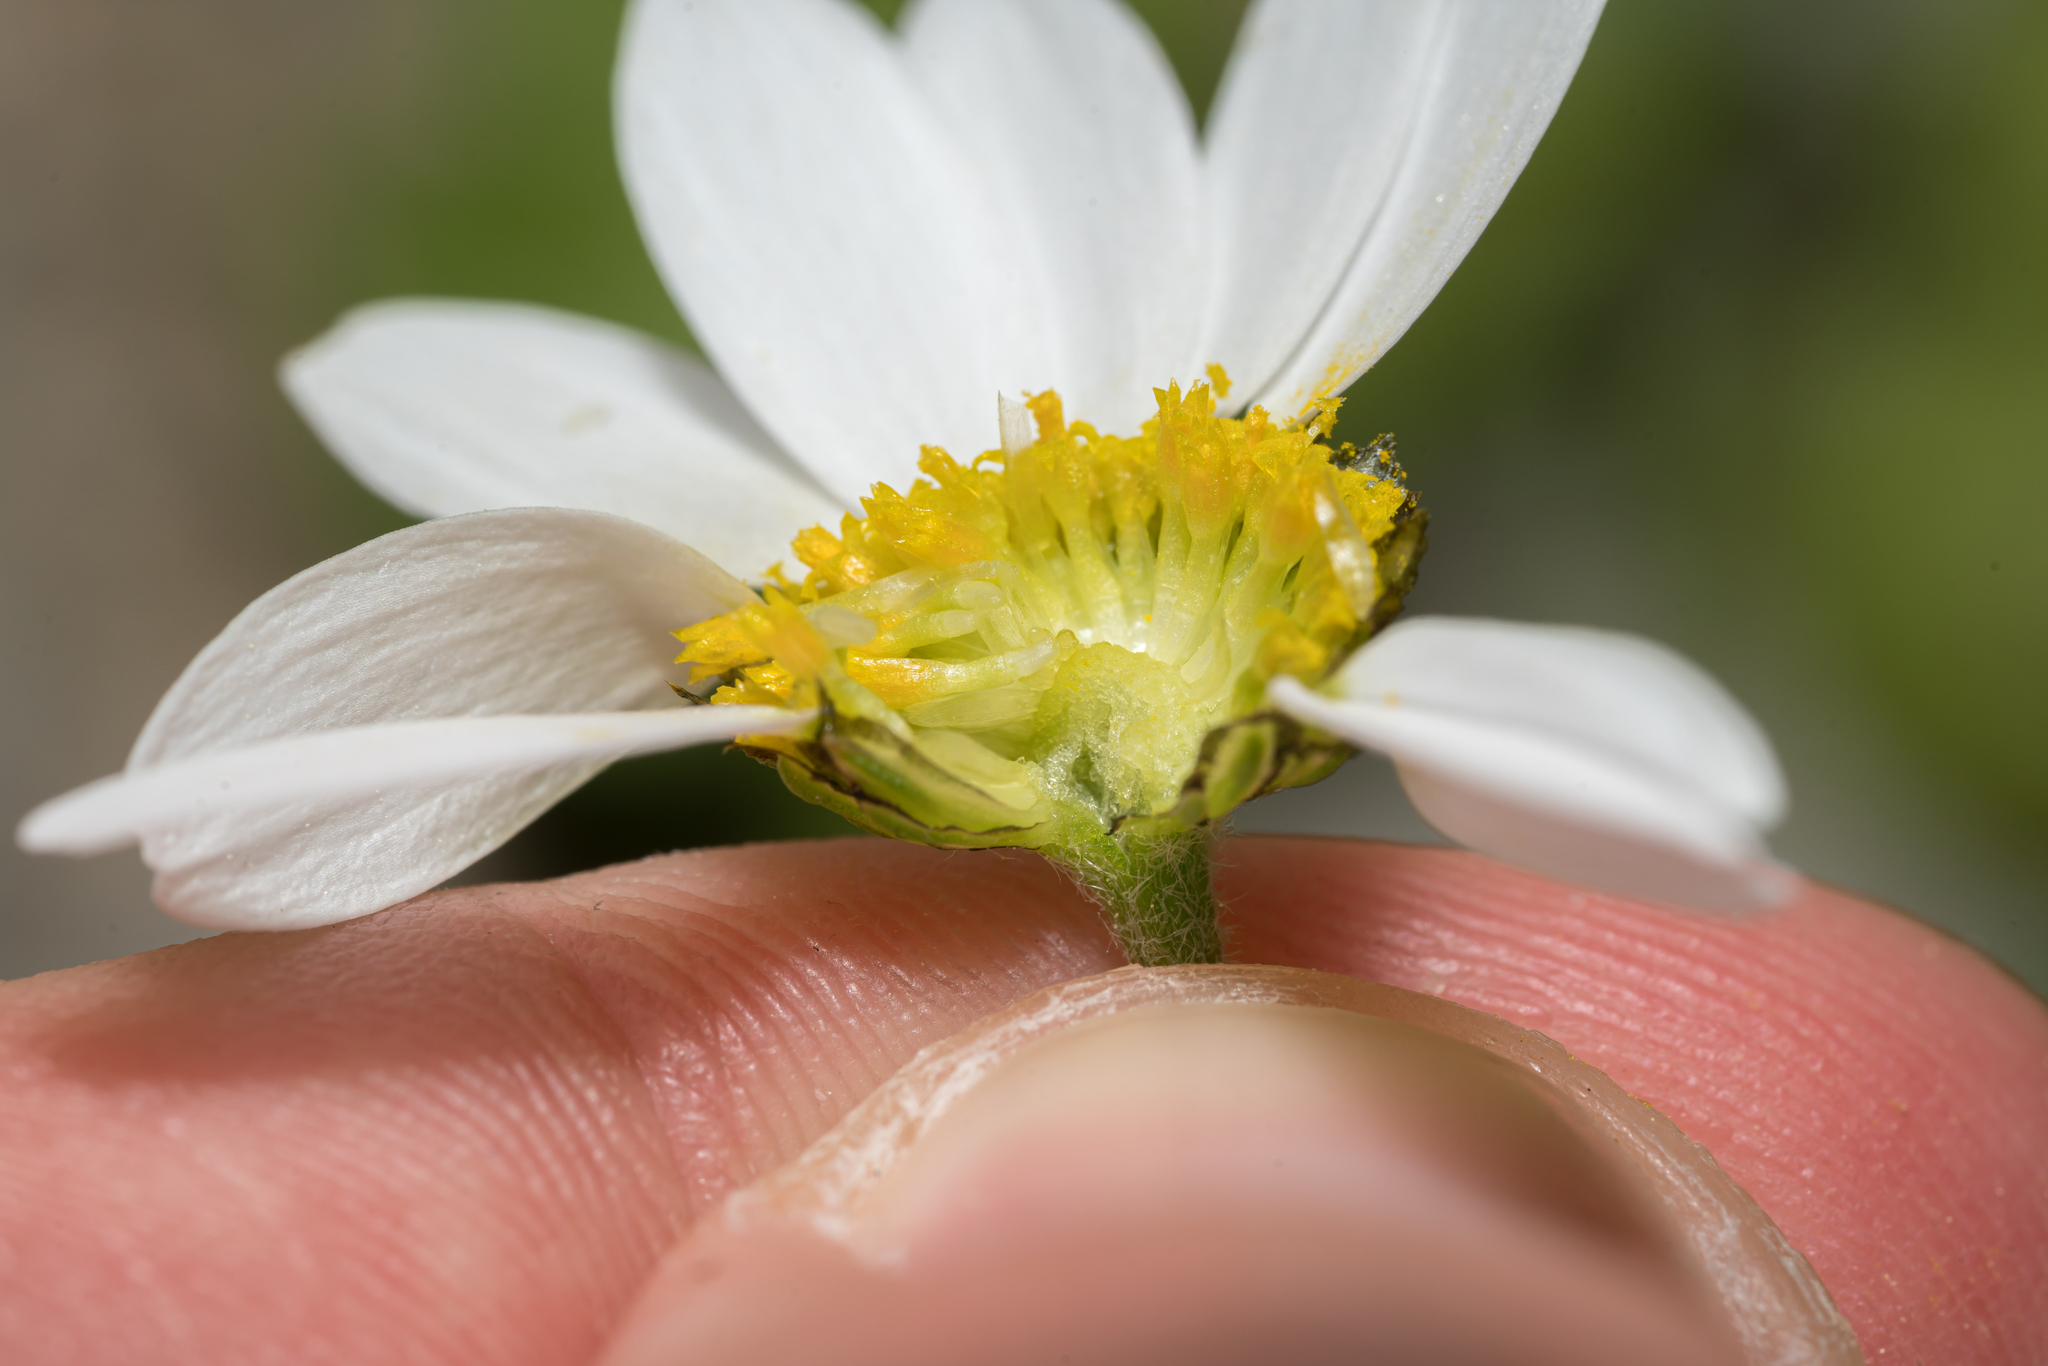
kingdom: Plantae
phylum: Tracheophyta
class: Magnoliopsida
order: Asterales
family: Asteraceae
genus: Anthemis
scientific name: Anthemis chia
